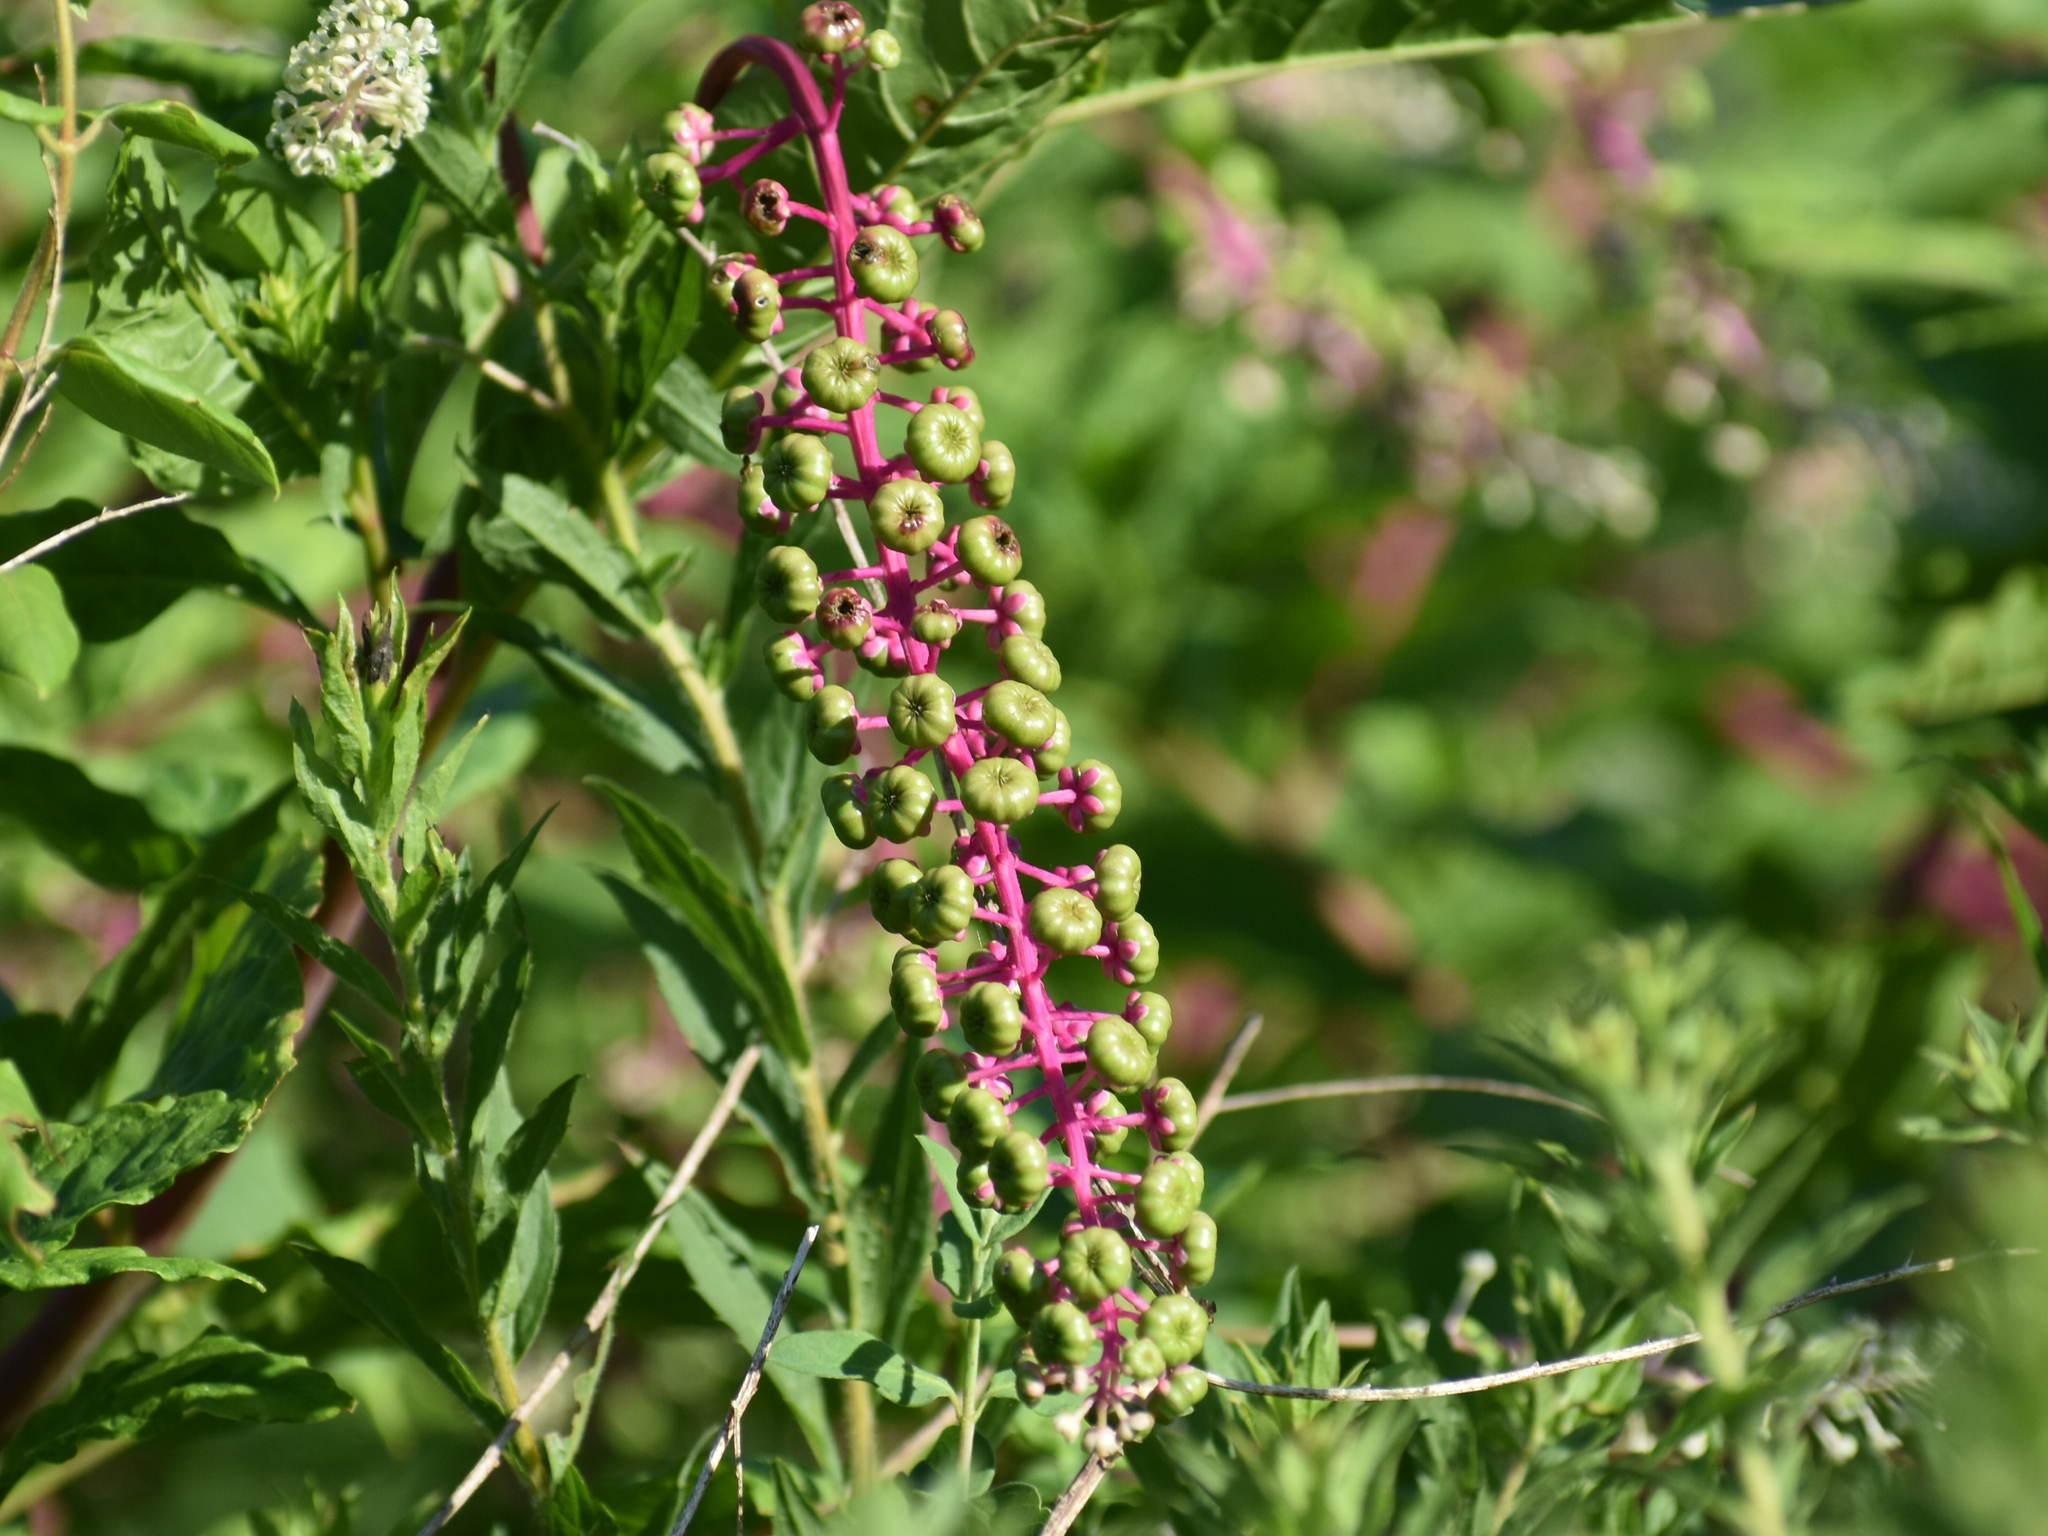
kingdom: Plantae
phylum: Tracheophyta
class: Magnoliopsida
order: Caryophyllales
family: Phytolaccaceae
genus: Phytolacca
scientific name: Phytolacca americana
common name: American pokeweed
